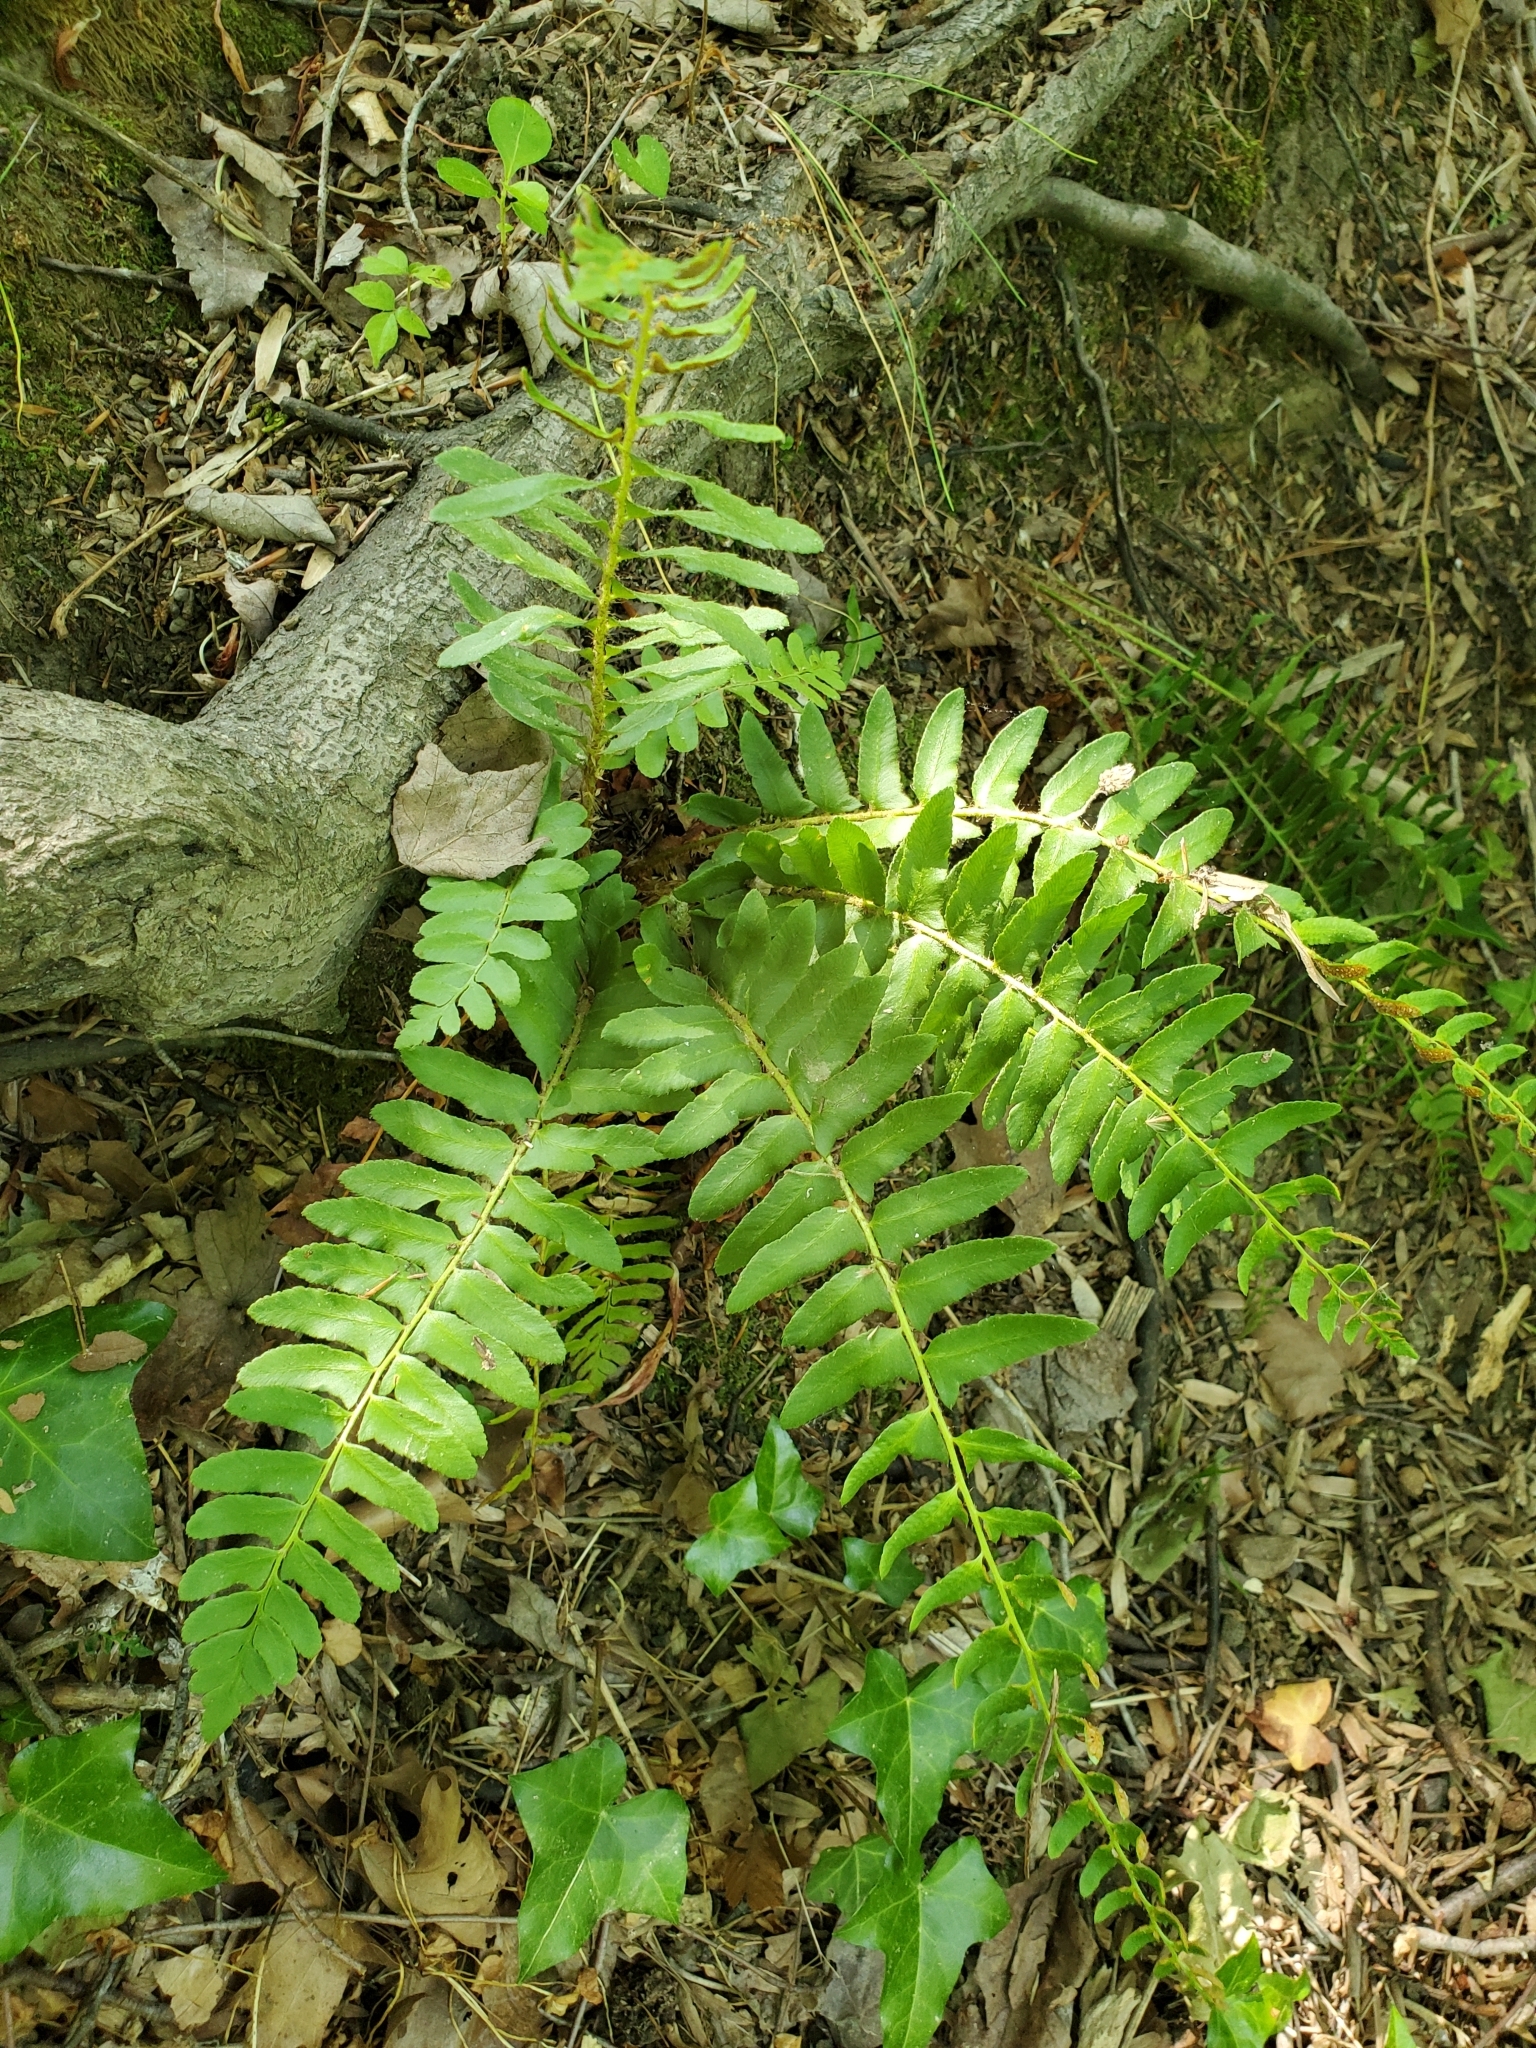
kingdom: Plantae
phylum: Tracheophyta
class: Polypodiopsida
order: Polypodiales
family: Dryopteridaceae
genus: Polystichum
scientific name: Polystichum acrostichoides
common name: Christmas fern
